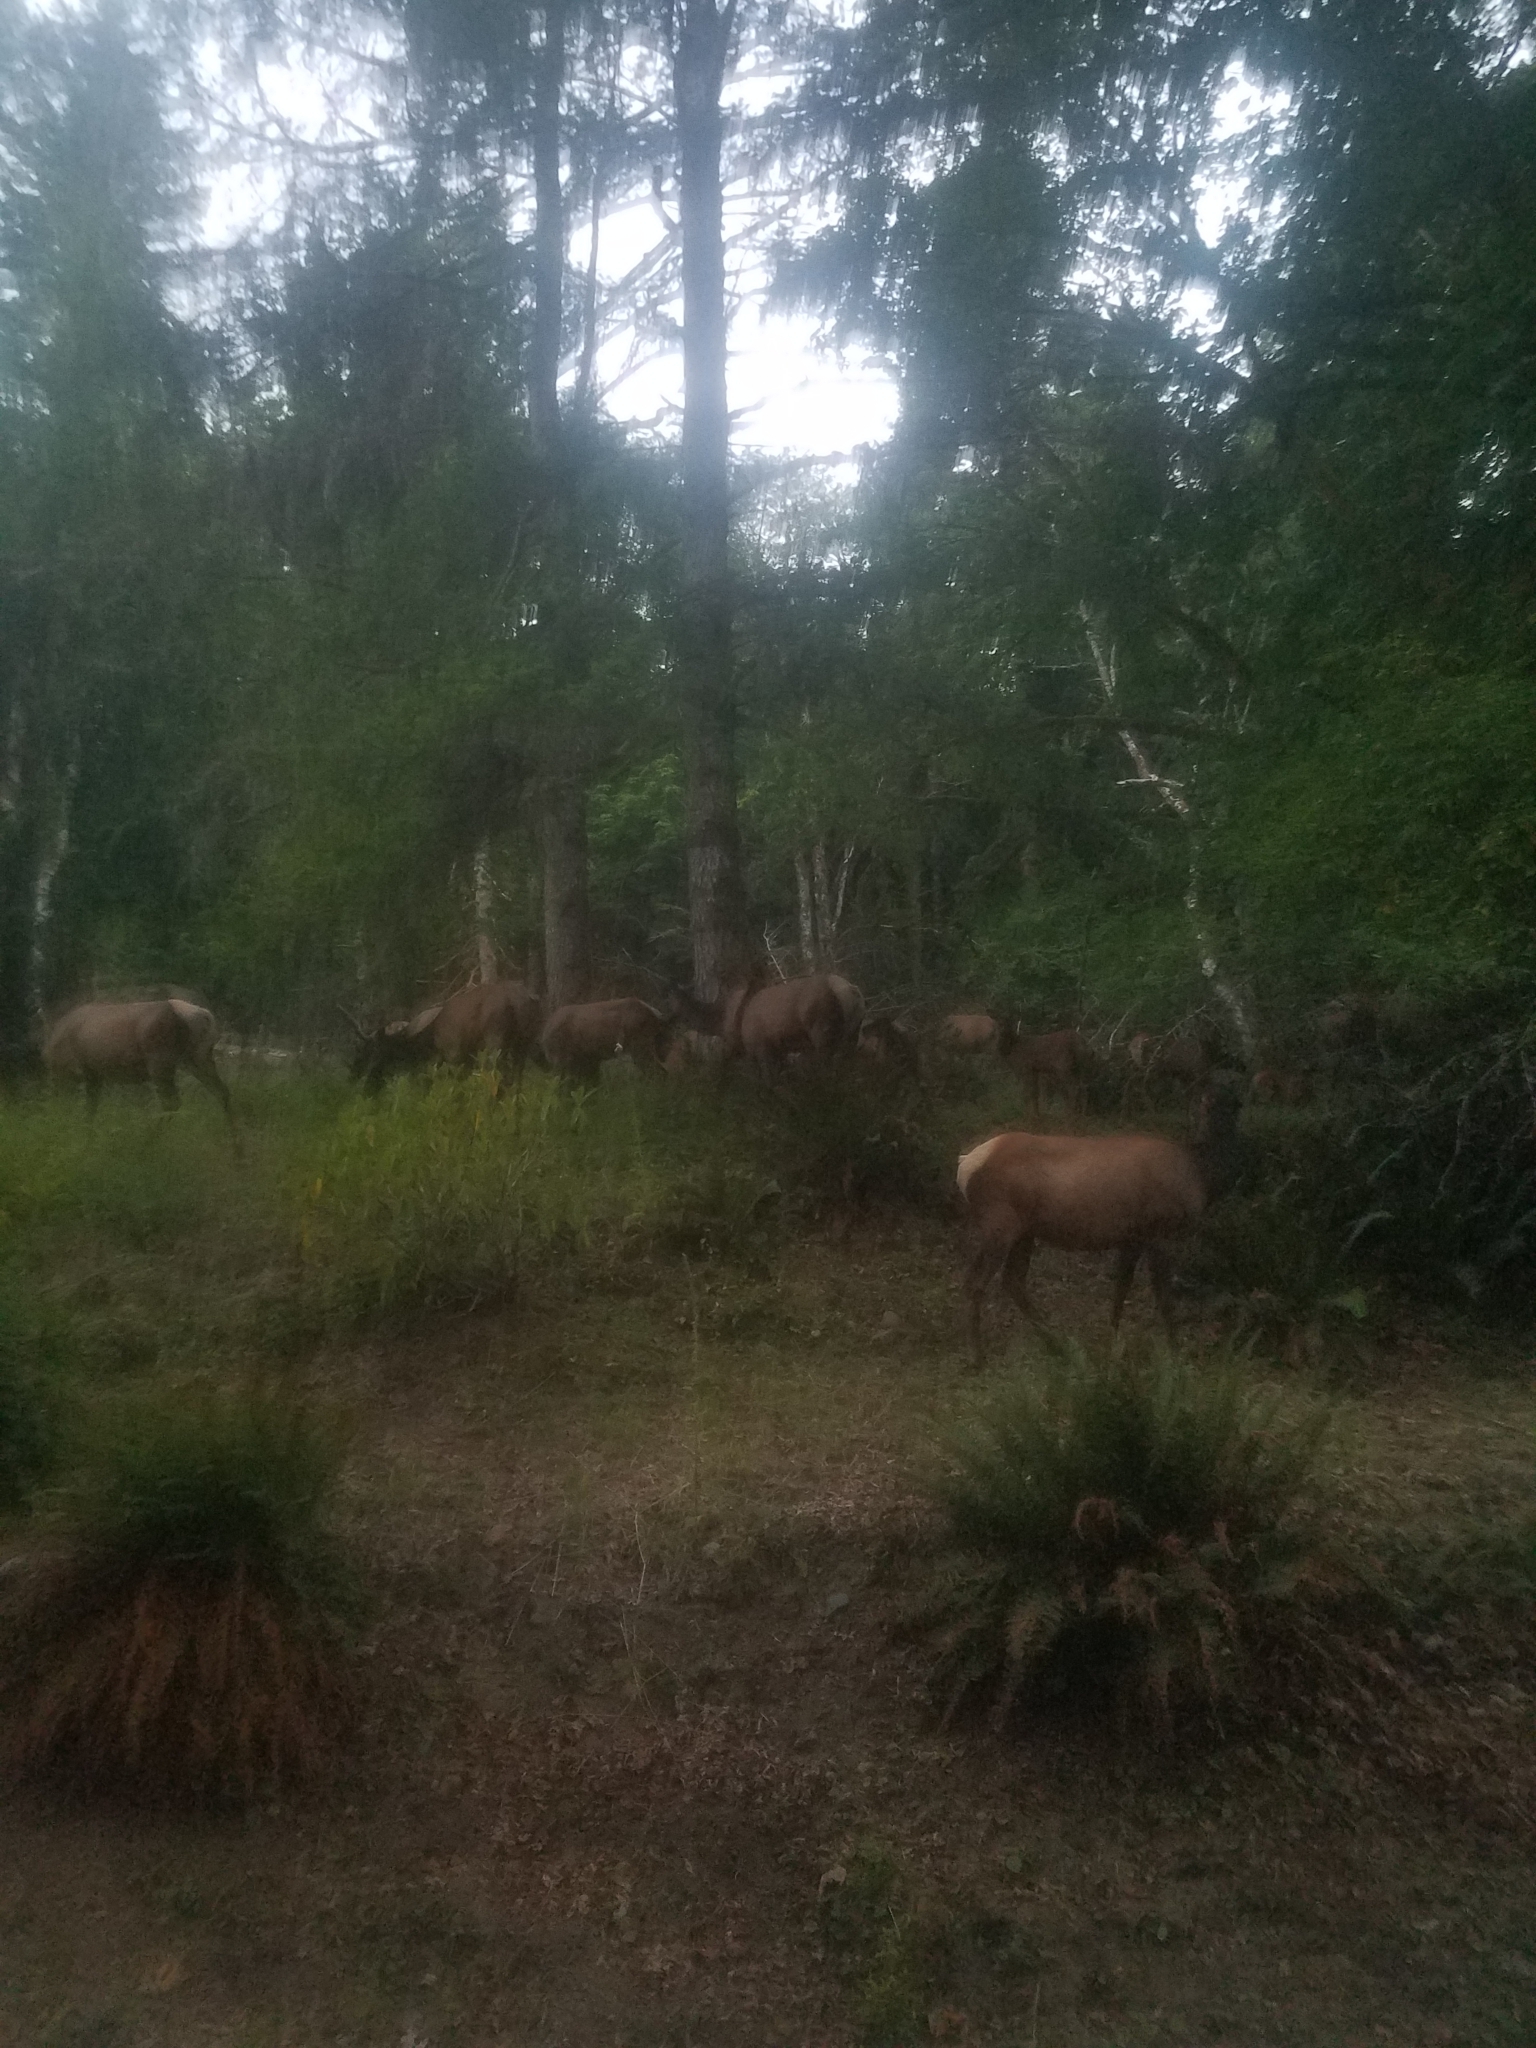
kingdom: Animalia
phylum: Chordata
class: Mammalia
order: Artiodactyla
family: Cervidae
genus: Cervus
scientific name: Cervus elaphus
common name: Red deer
